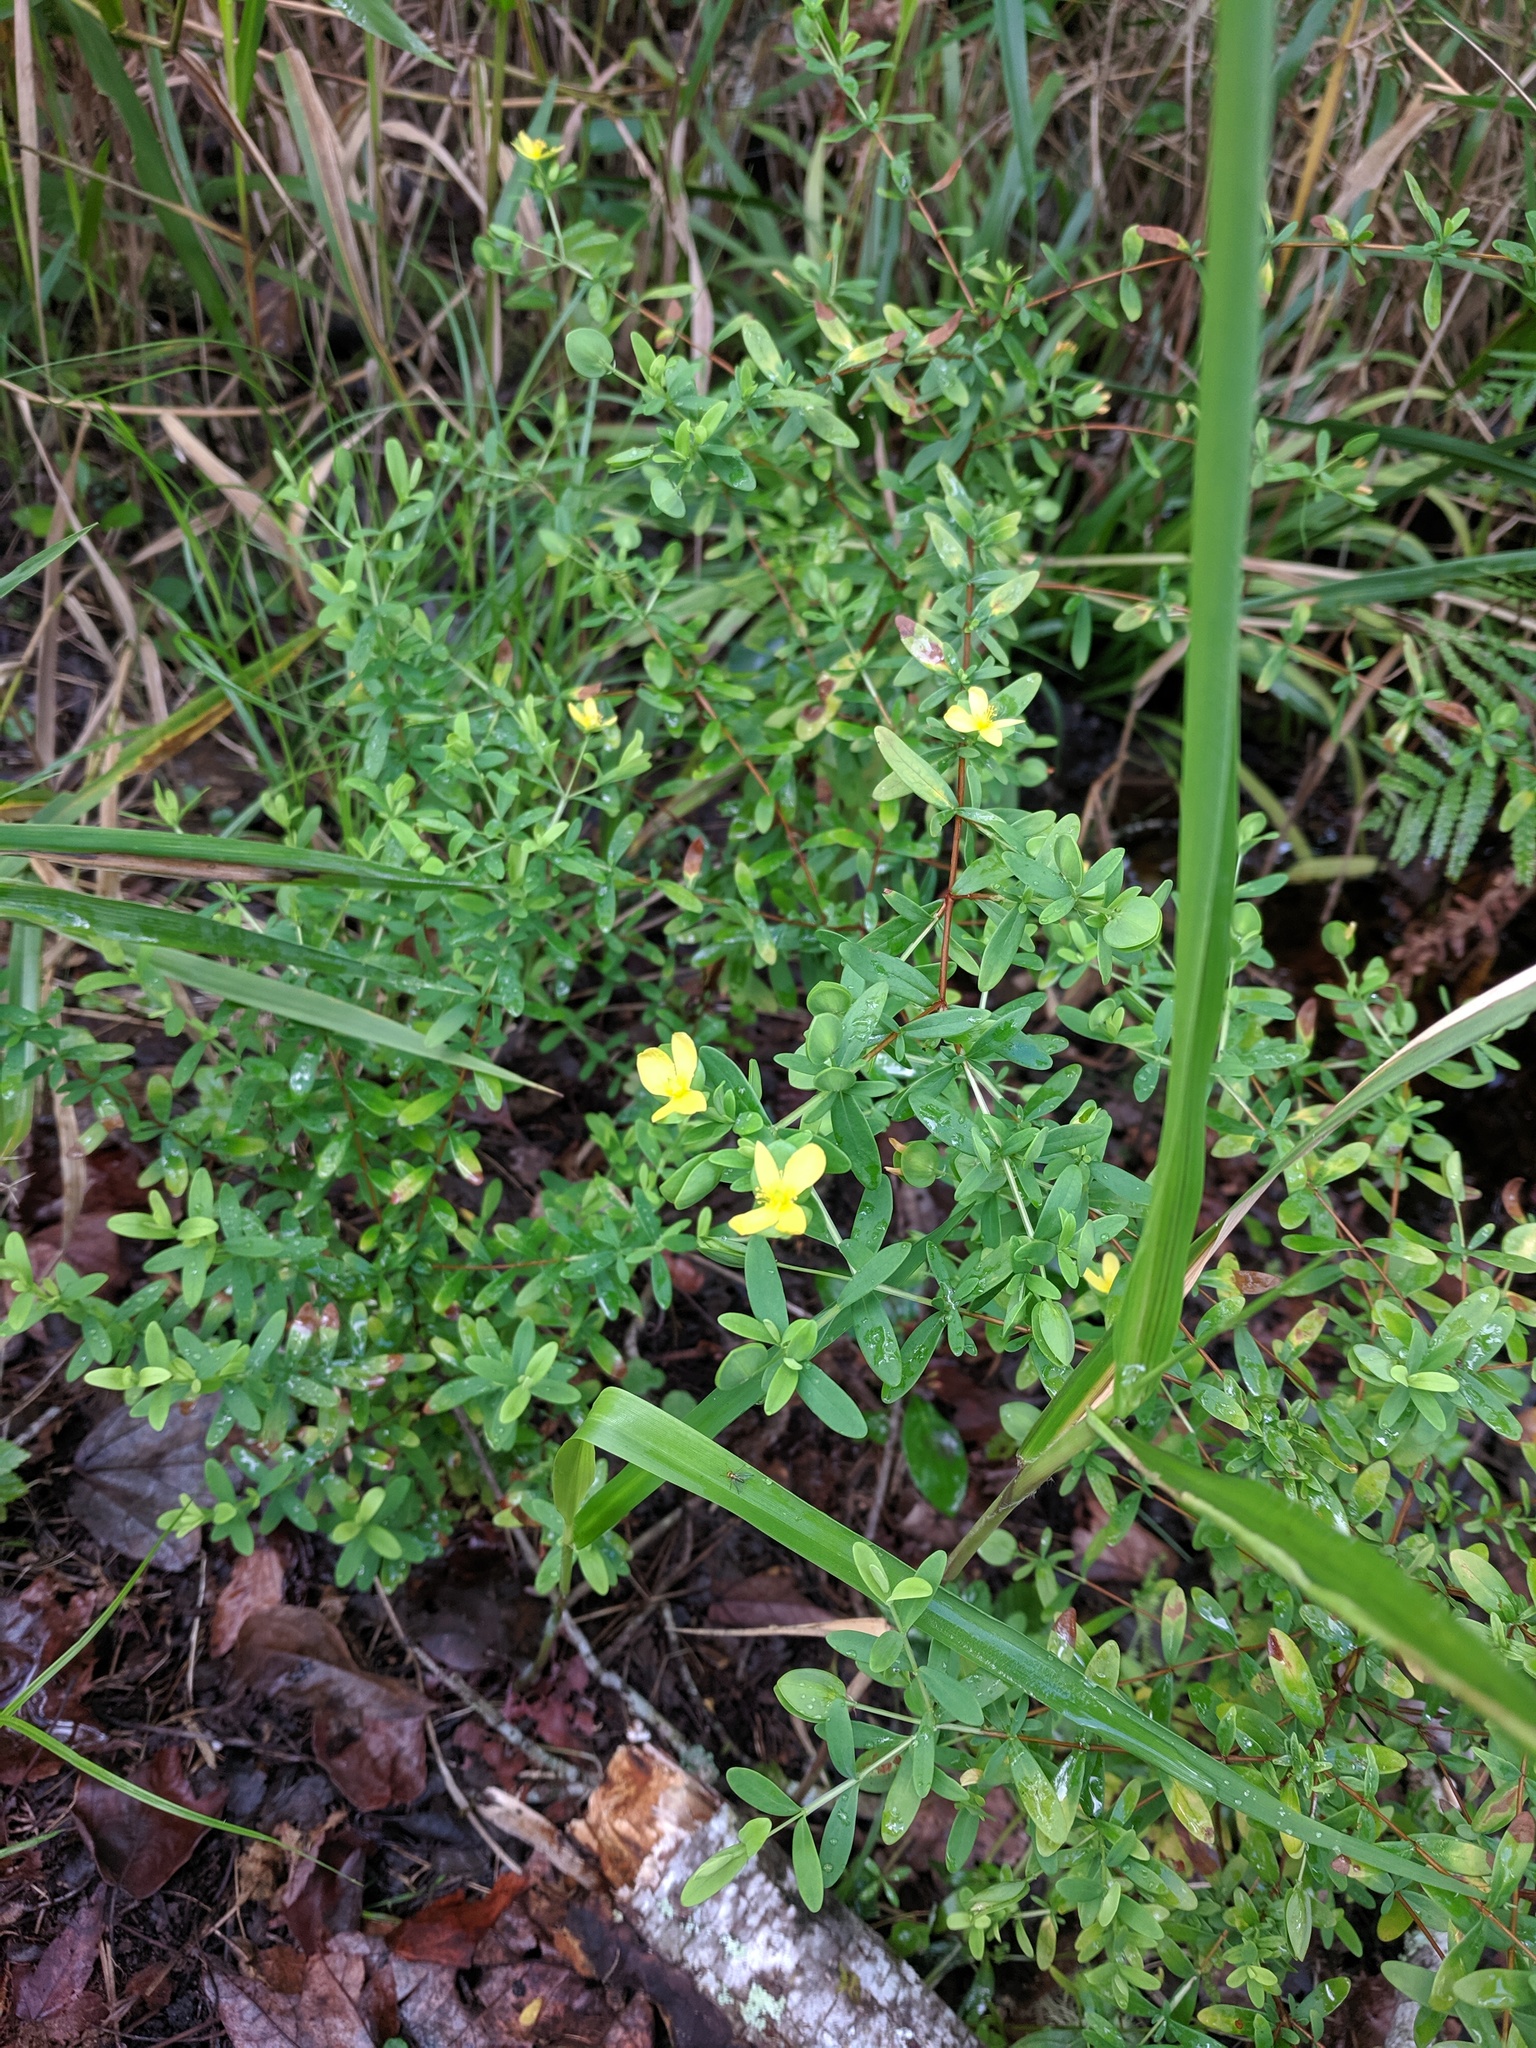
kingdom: Plantae
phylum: Tracheophyta
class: Magnoliopsida
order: Malpighiales
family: Hypericaceae
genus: Hypericum
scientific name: Hypericum hypericoides
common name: St. andrew's cross
